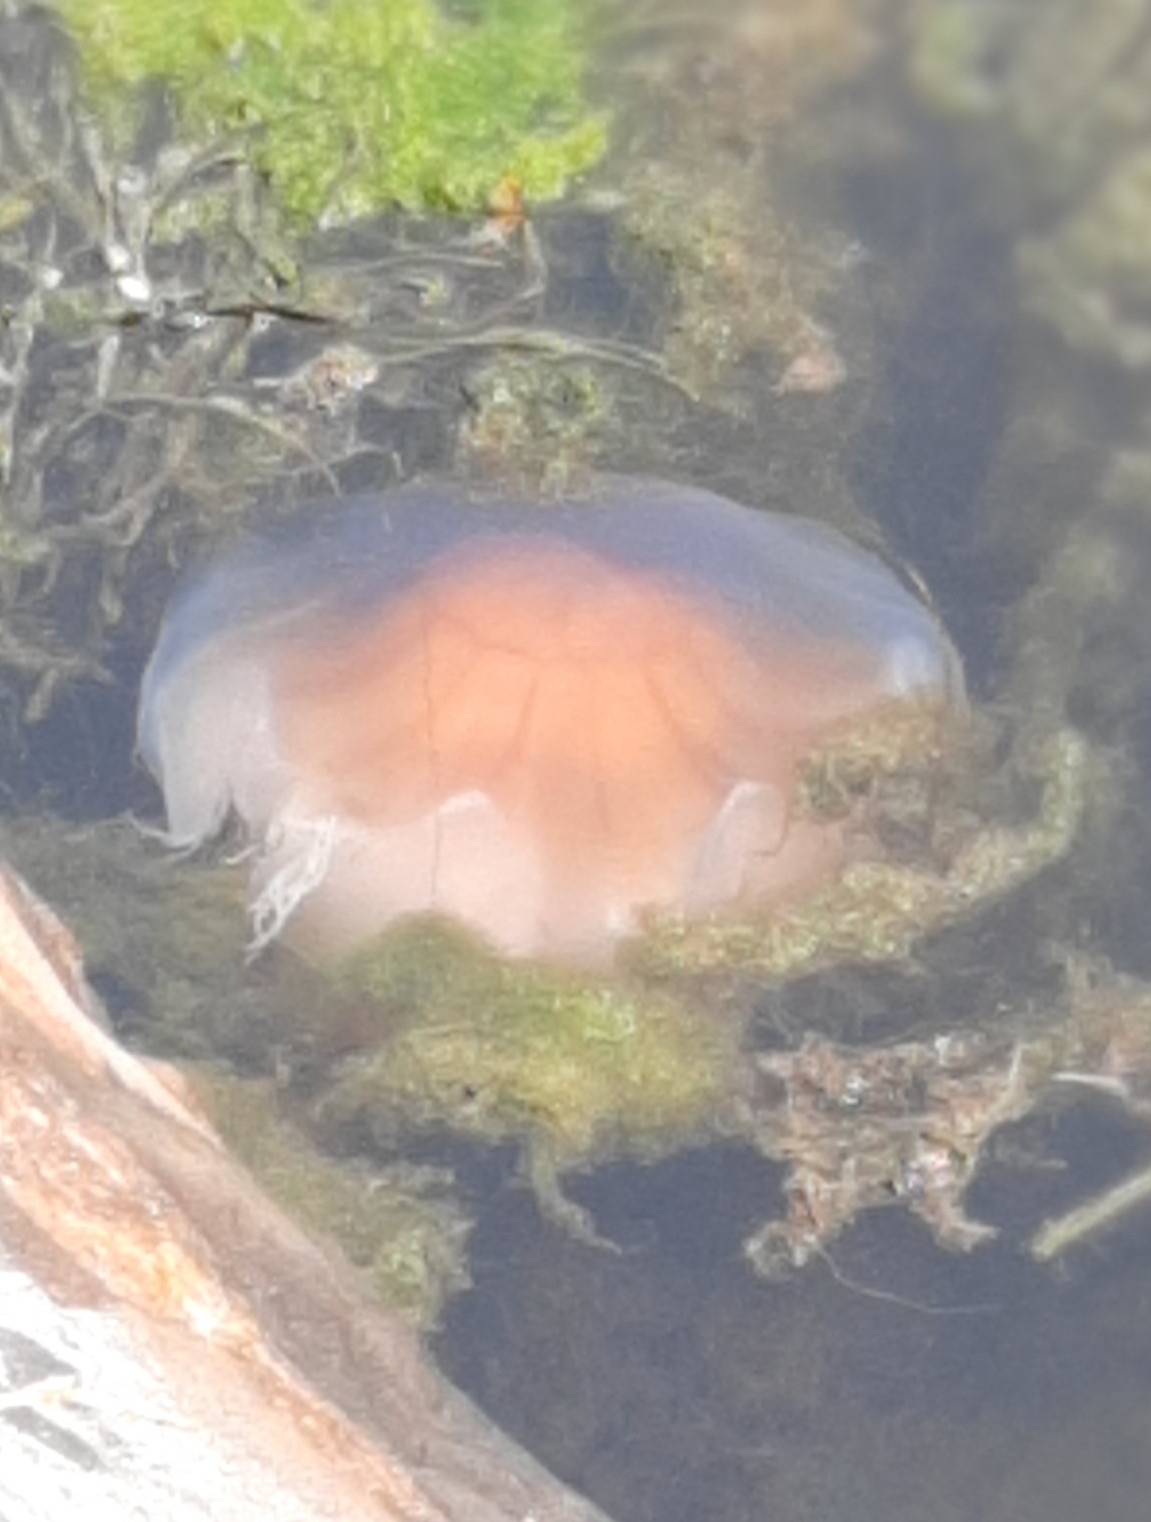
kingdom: Animalia
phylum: Cnidaria
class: Scyphozoa
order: Semaeostomeae
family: Cyaneidae
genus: Cyanea
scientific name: Cyanea capillata
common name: Lion's mane jellyfish
